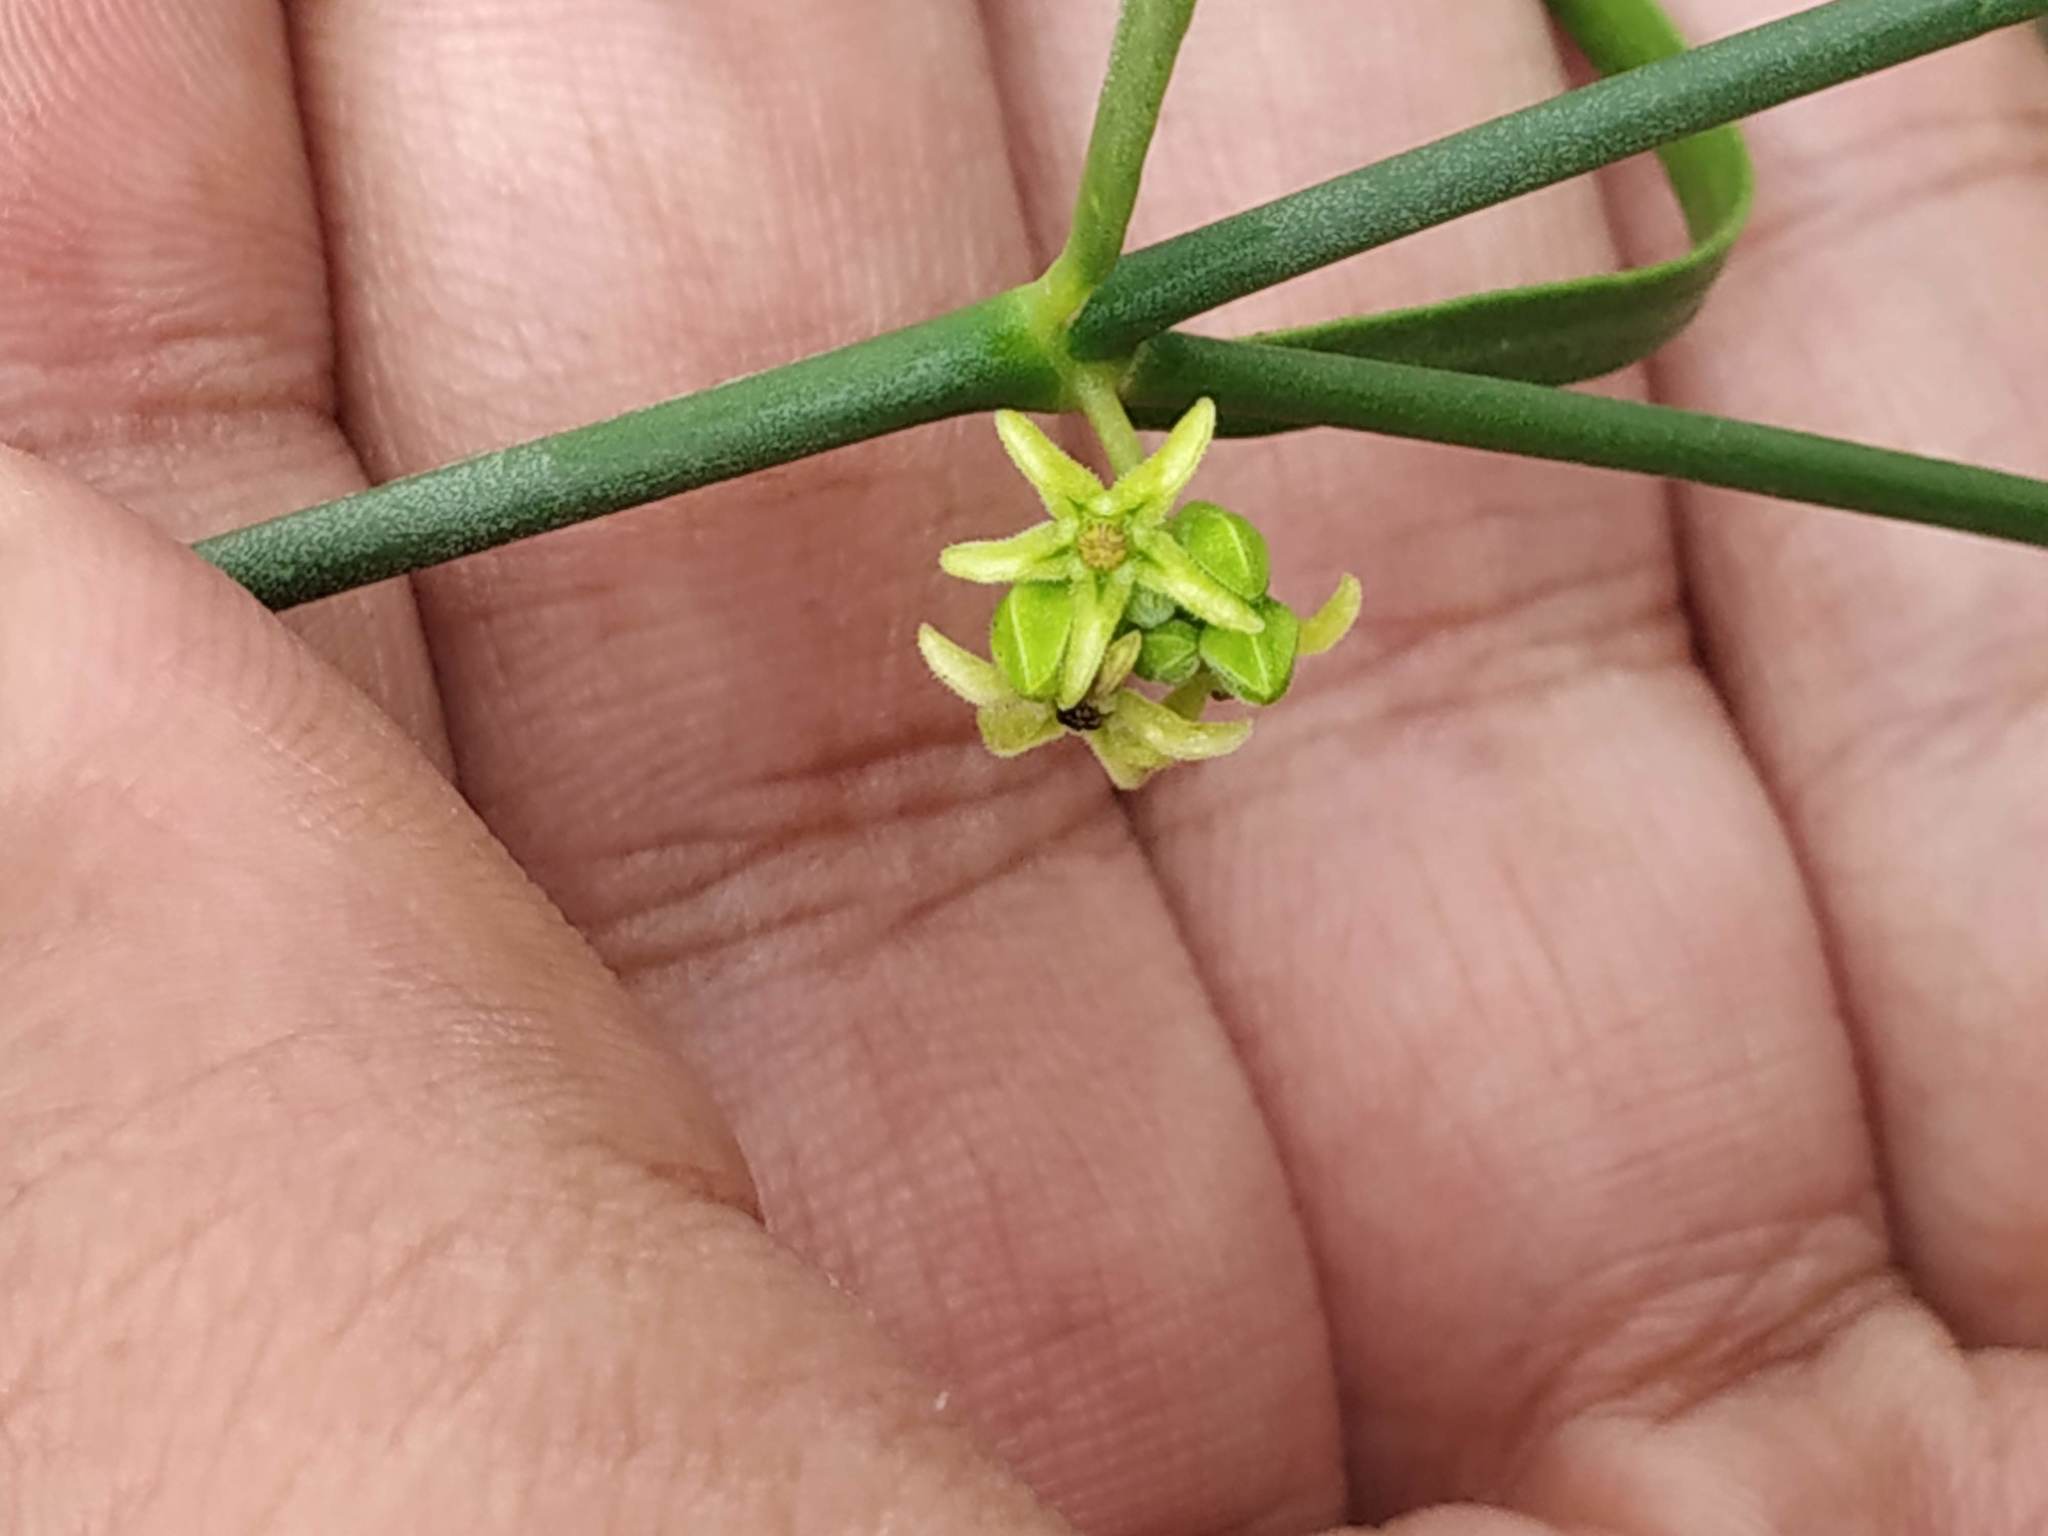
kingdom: Plantae
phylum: Tracheophyta
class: Magnoliopsida
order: Gentianales
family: Apocynaceae
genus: Leptadenia
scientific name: Leptadenia pyrotechnica
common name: Broom brush
